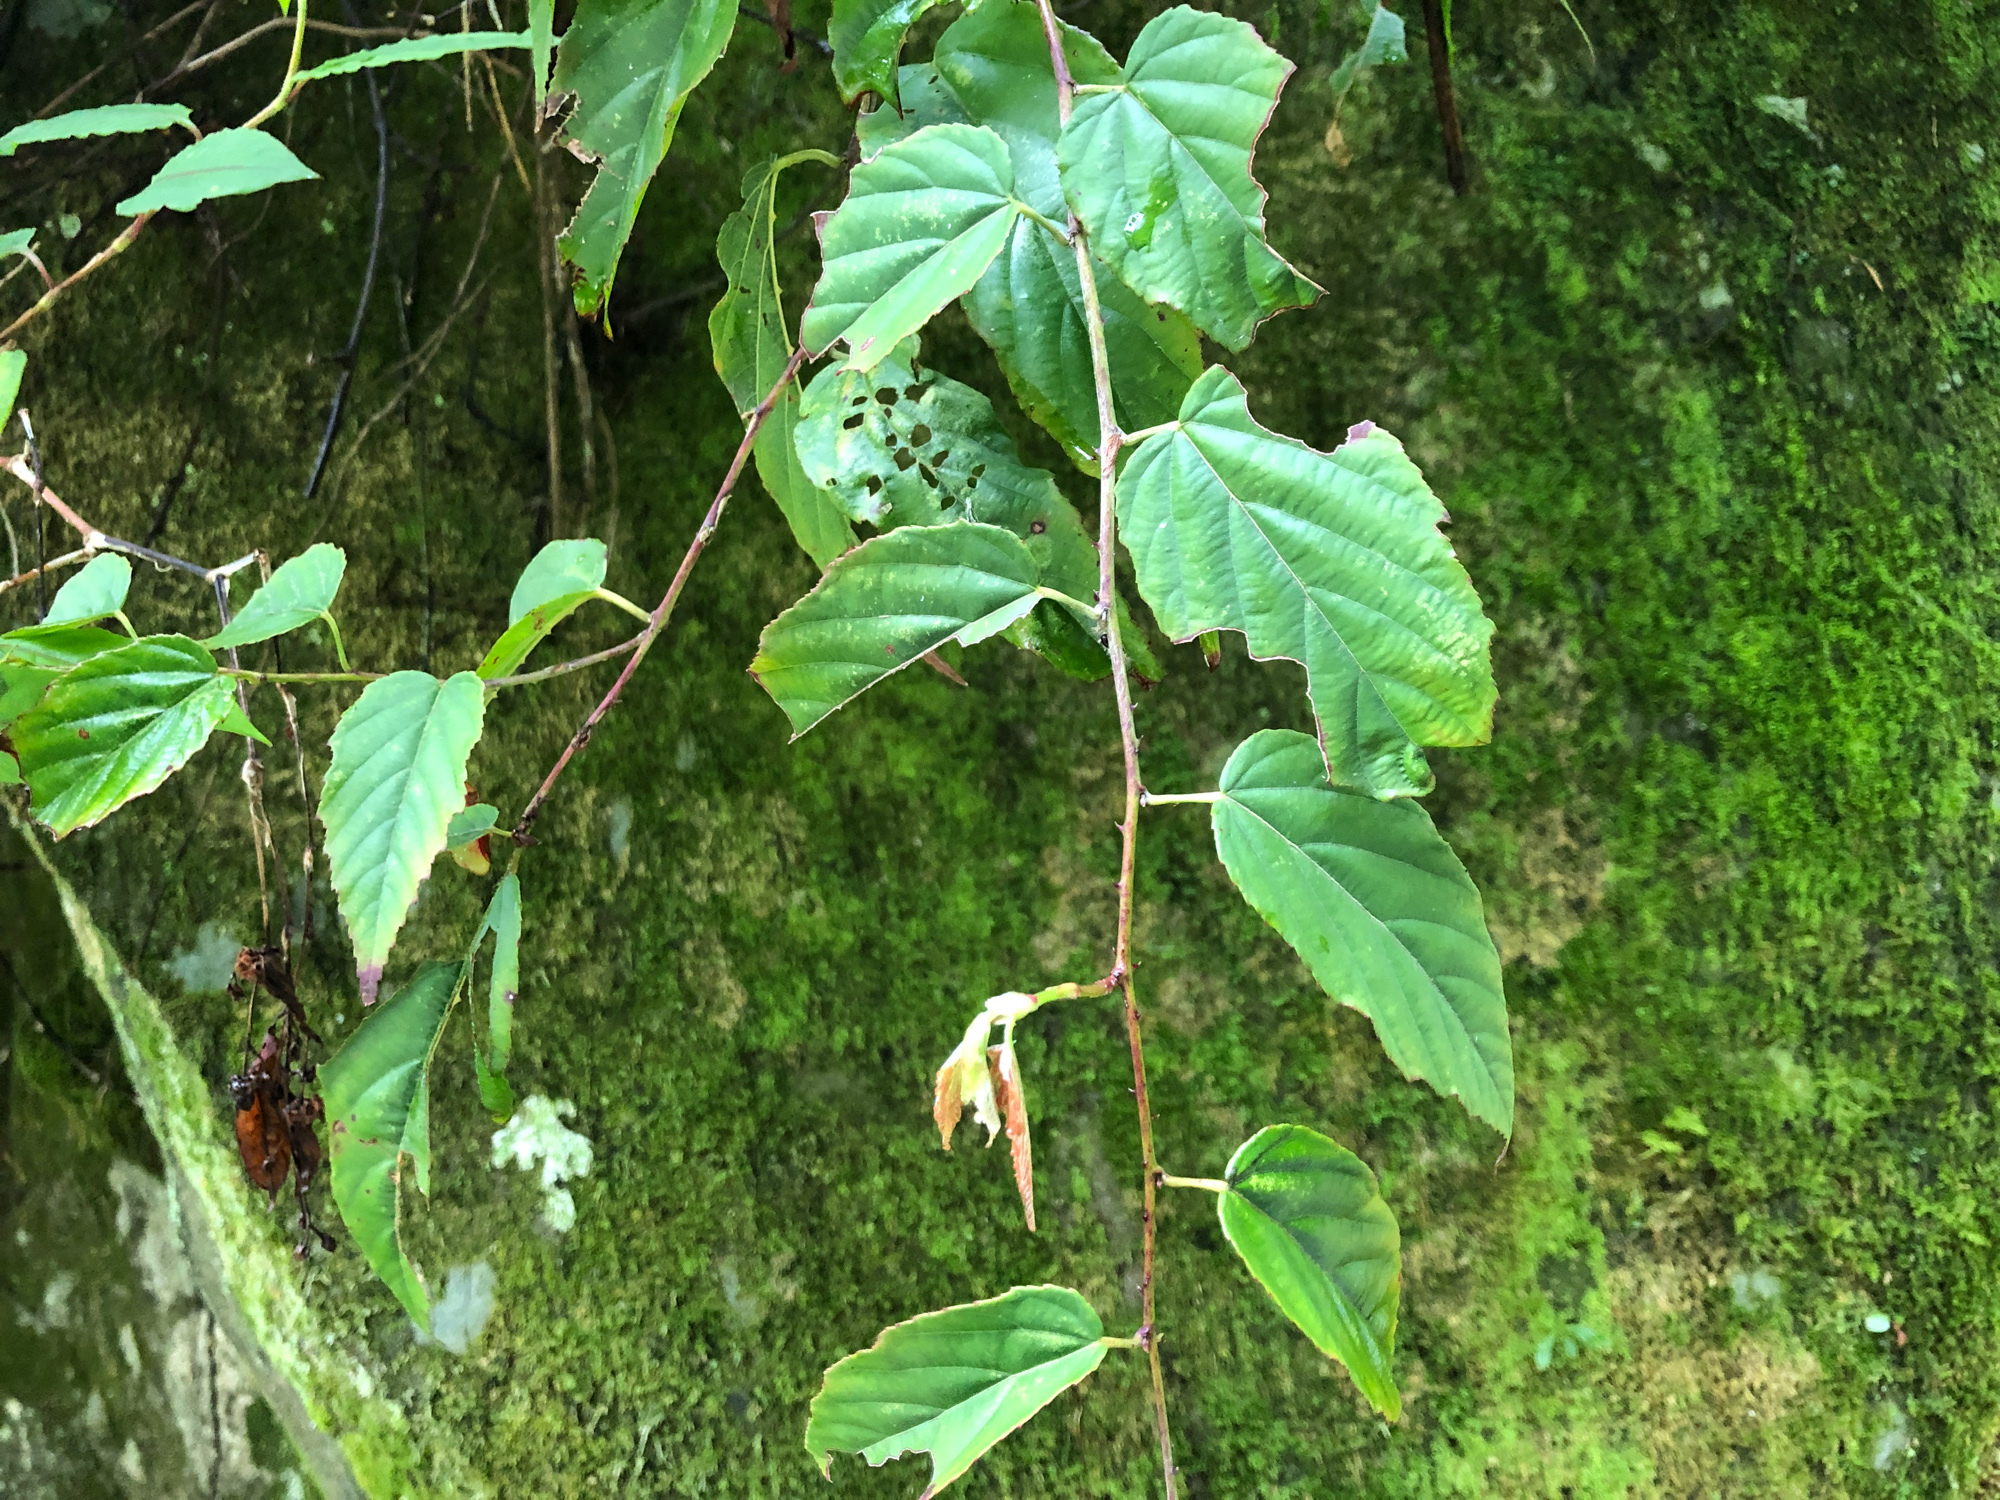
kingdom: Plantae
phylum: Tracheophyta
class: Magnoliopsida
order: Rosales
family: Rosaceae
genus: Rubus
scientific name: Rubus swinhoei
